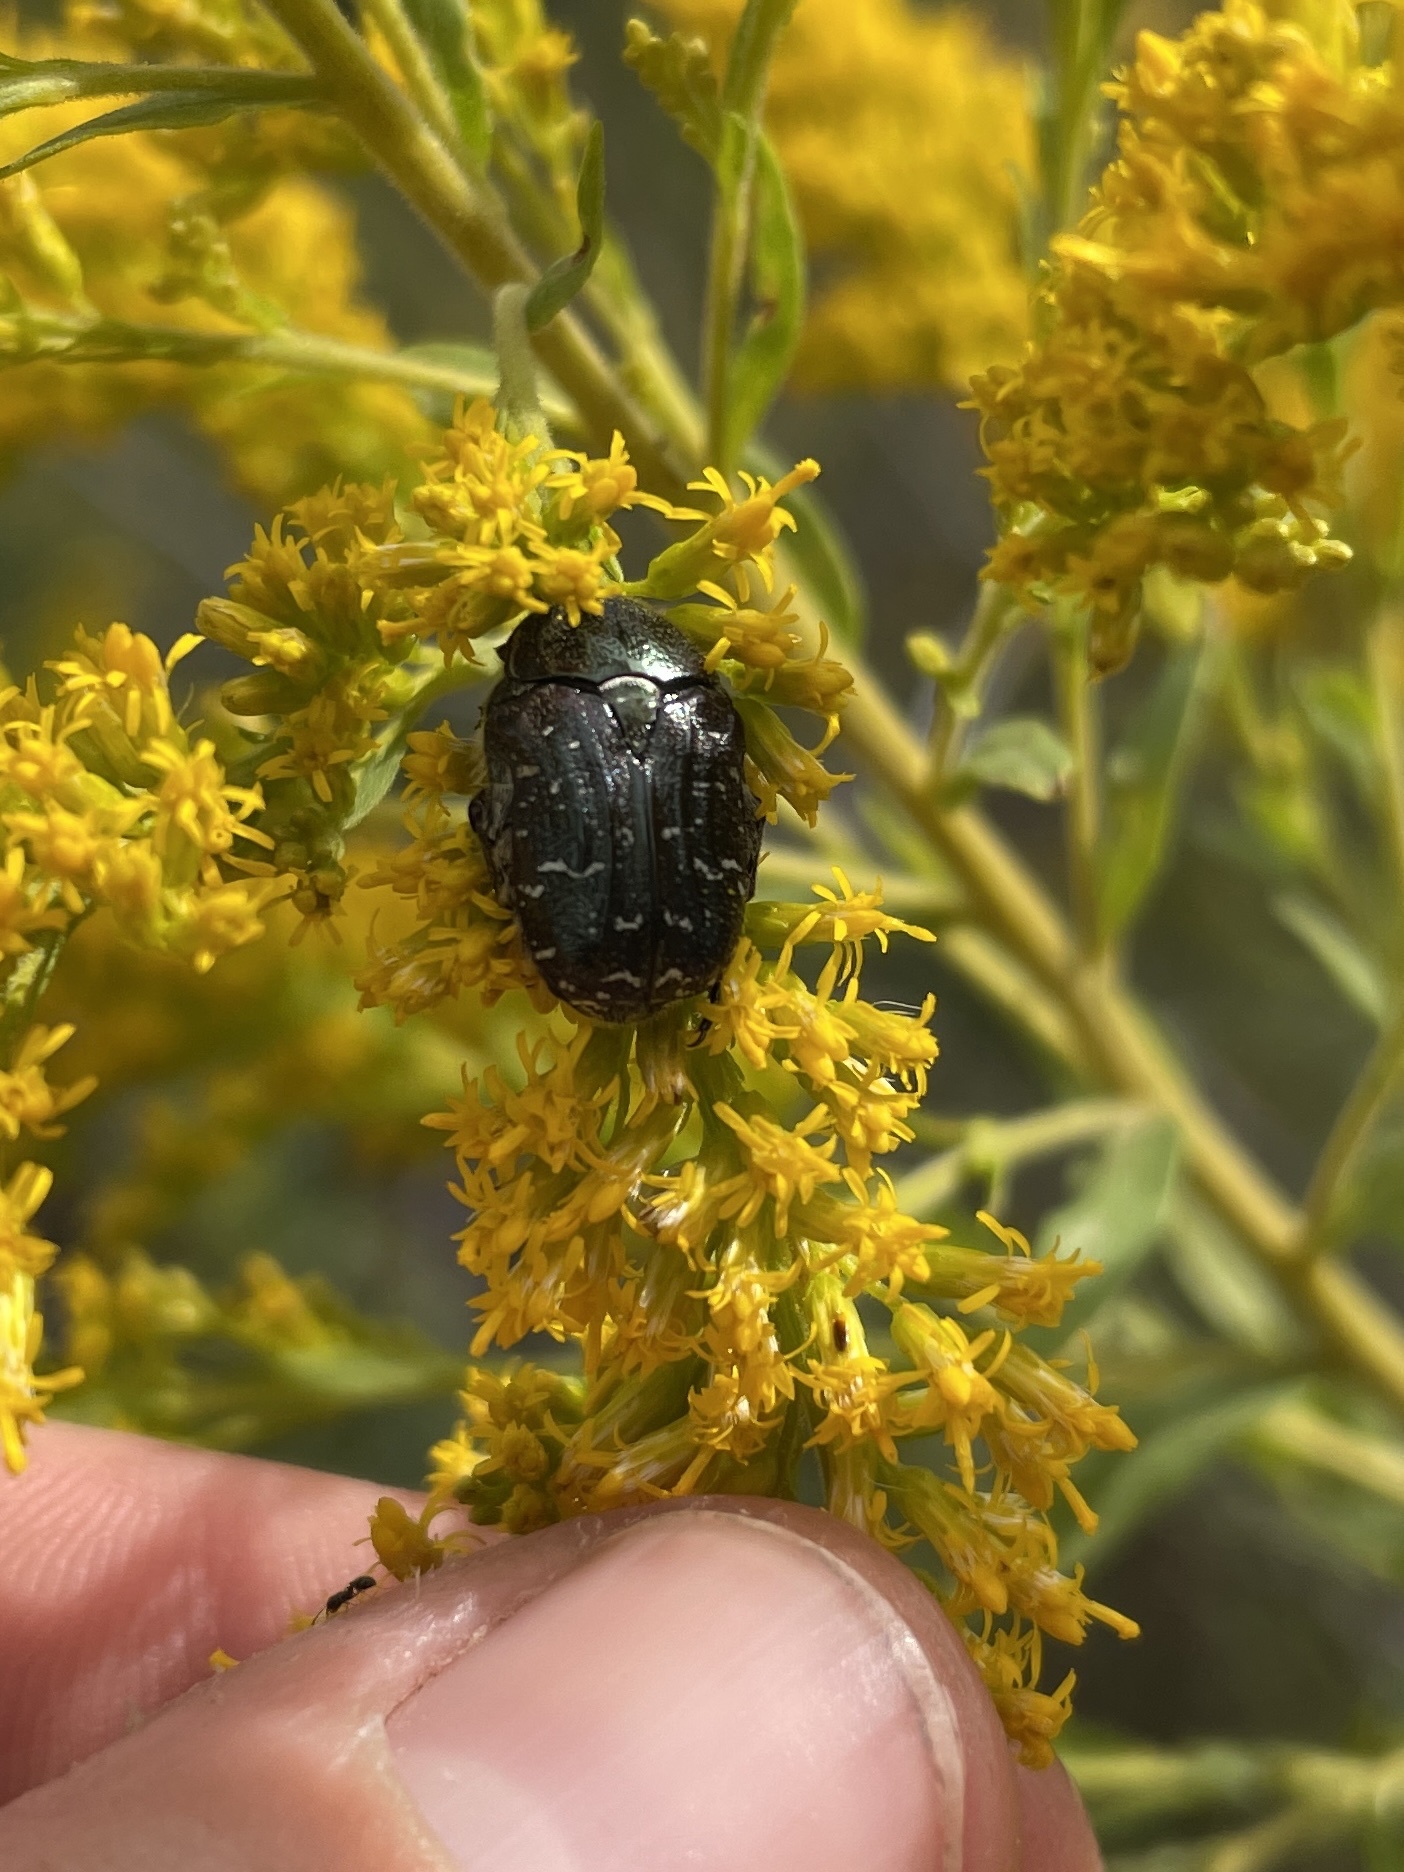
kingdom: Animalia
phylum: Arthropoda
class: Insecta
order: Coleoptera
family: Scarabaeidae
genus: Euphoria
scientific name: Euphoria sepulcralis
